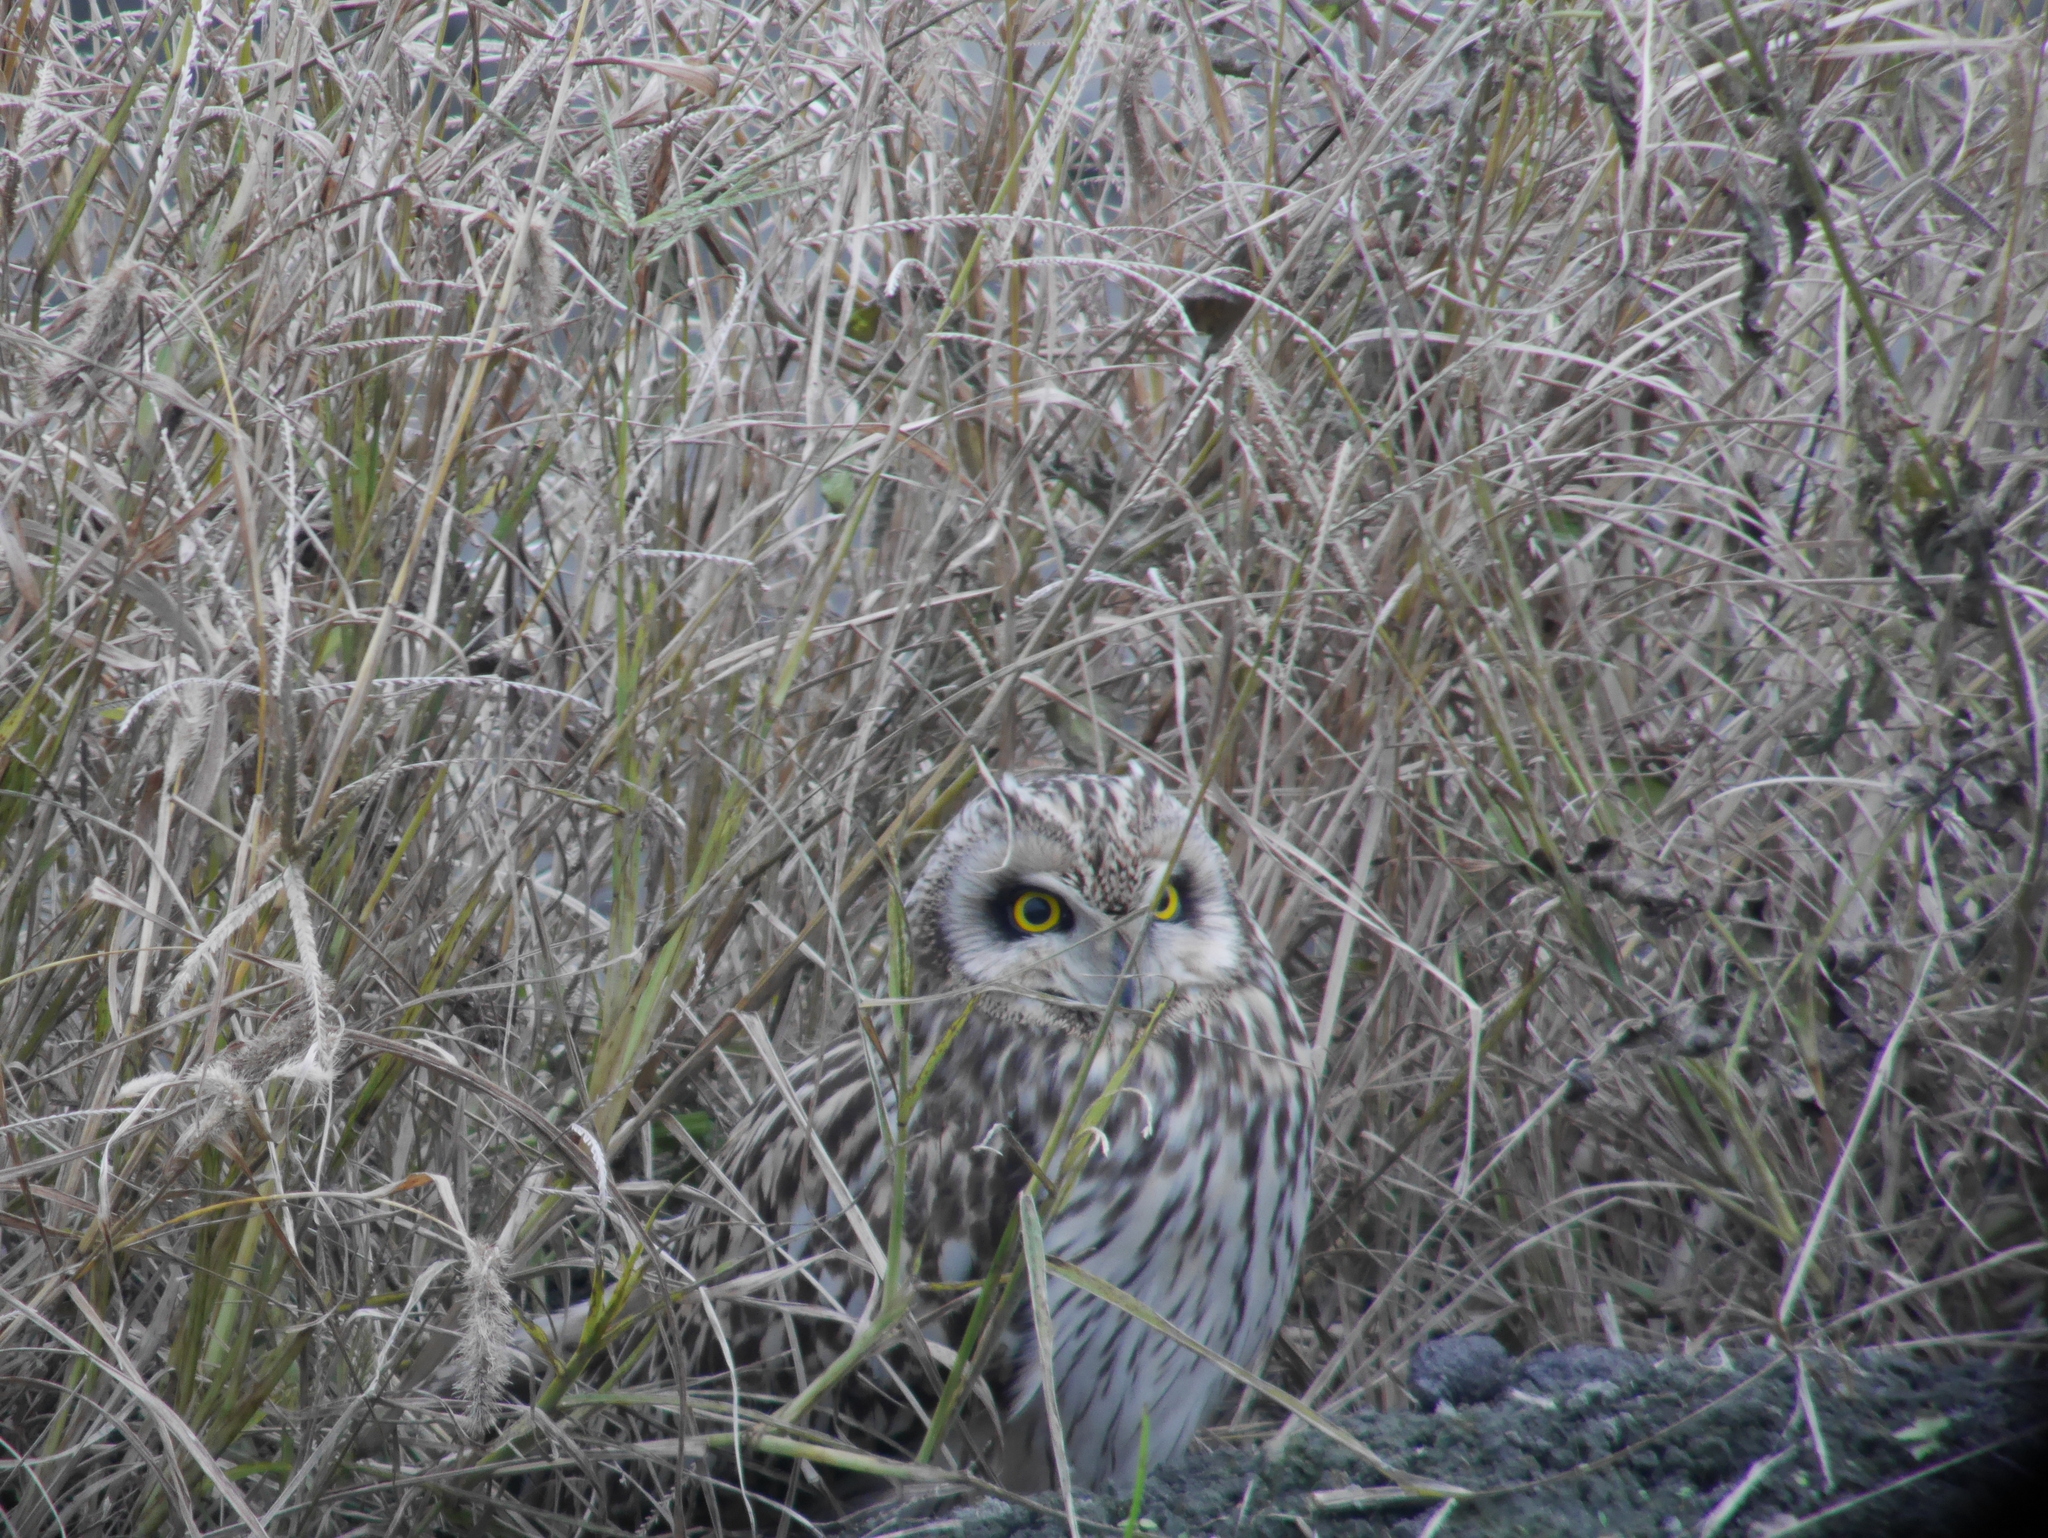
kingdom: Animalia
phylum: Chordata
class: Aves
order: Strigiformes
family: Strigidae
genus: Asio
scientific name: Asio flammeus
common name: Short-eared owl
